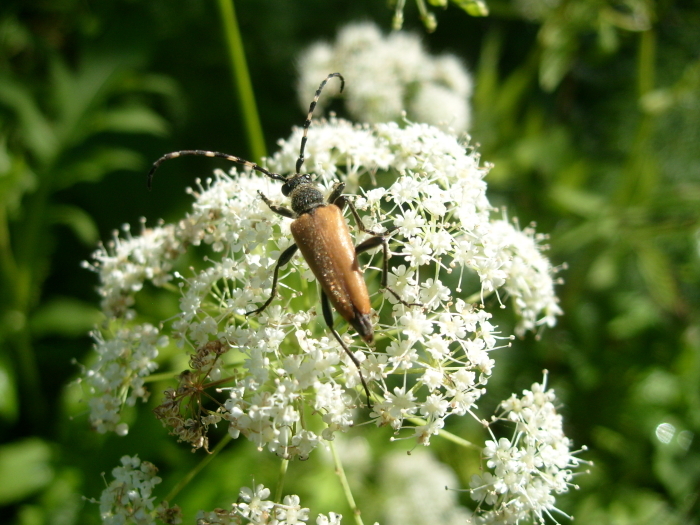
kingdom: Animalia
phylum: Arthropoda
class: Insecta
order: Coleoptera
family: Cerambycidae
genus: Stictoleptura
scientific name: Stictoleptura variicornis
